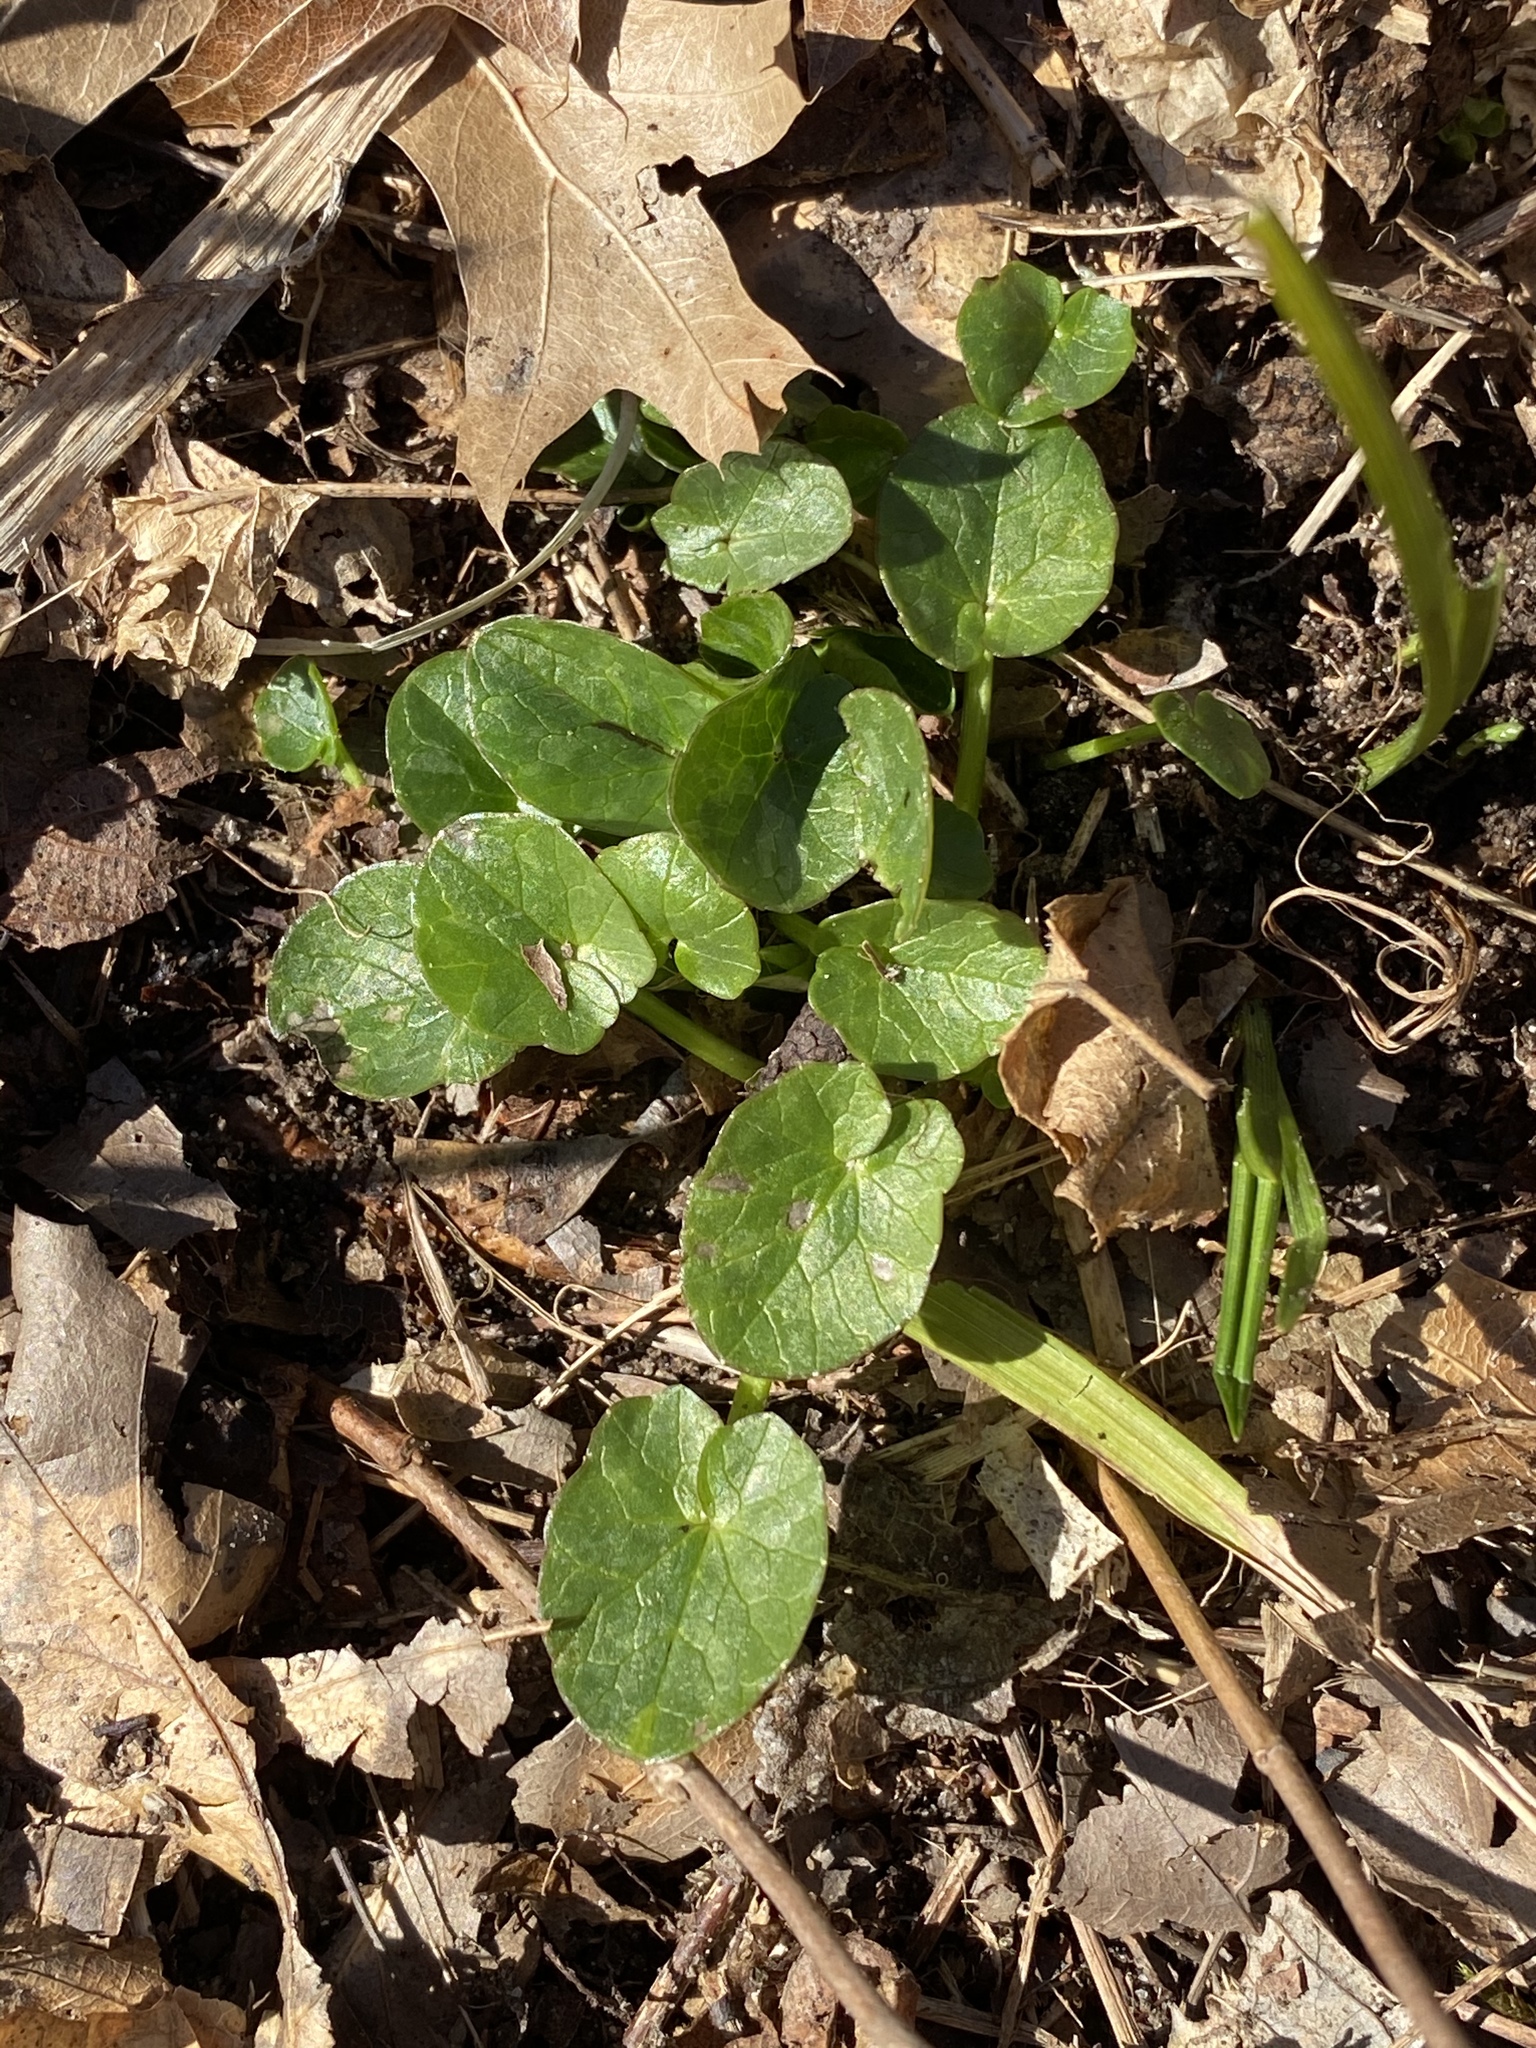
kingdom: Plantae
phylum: Tracheophyta
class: Magnoliopsida
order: Ranunculales
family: Ranunculaceae
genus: Ficaria
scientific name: Ficaria verna
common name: Lesser celandine
